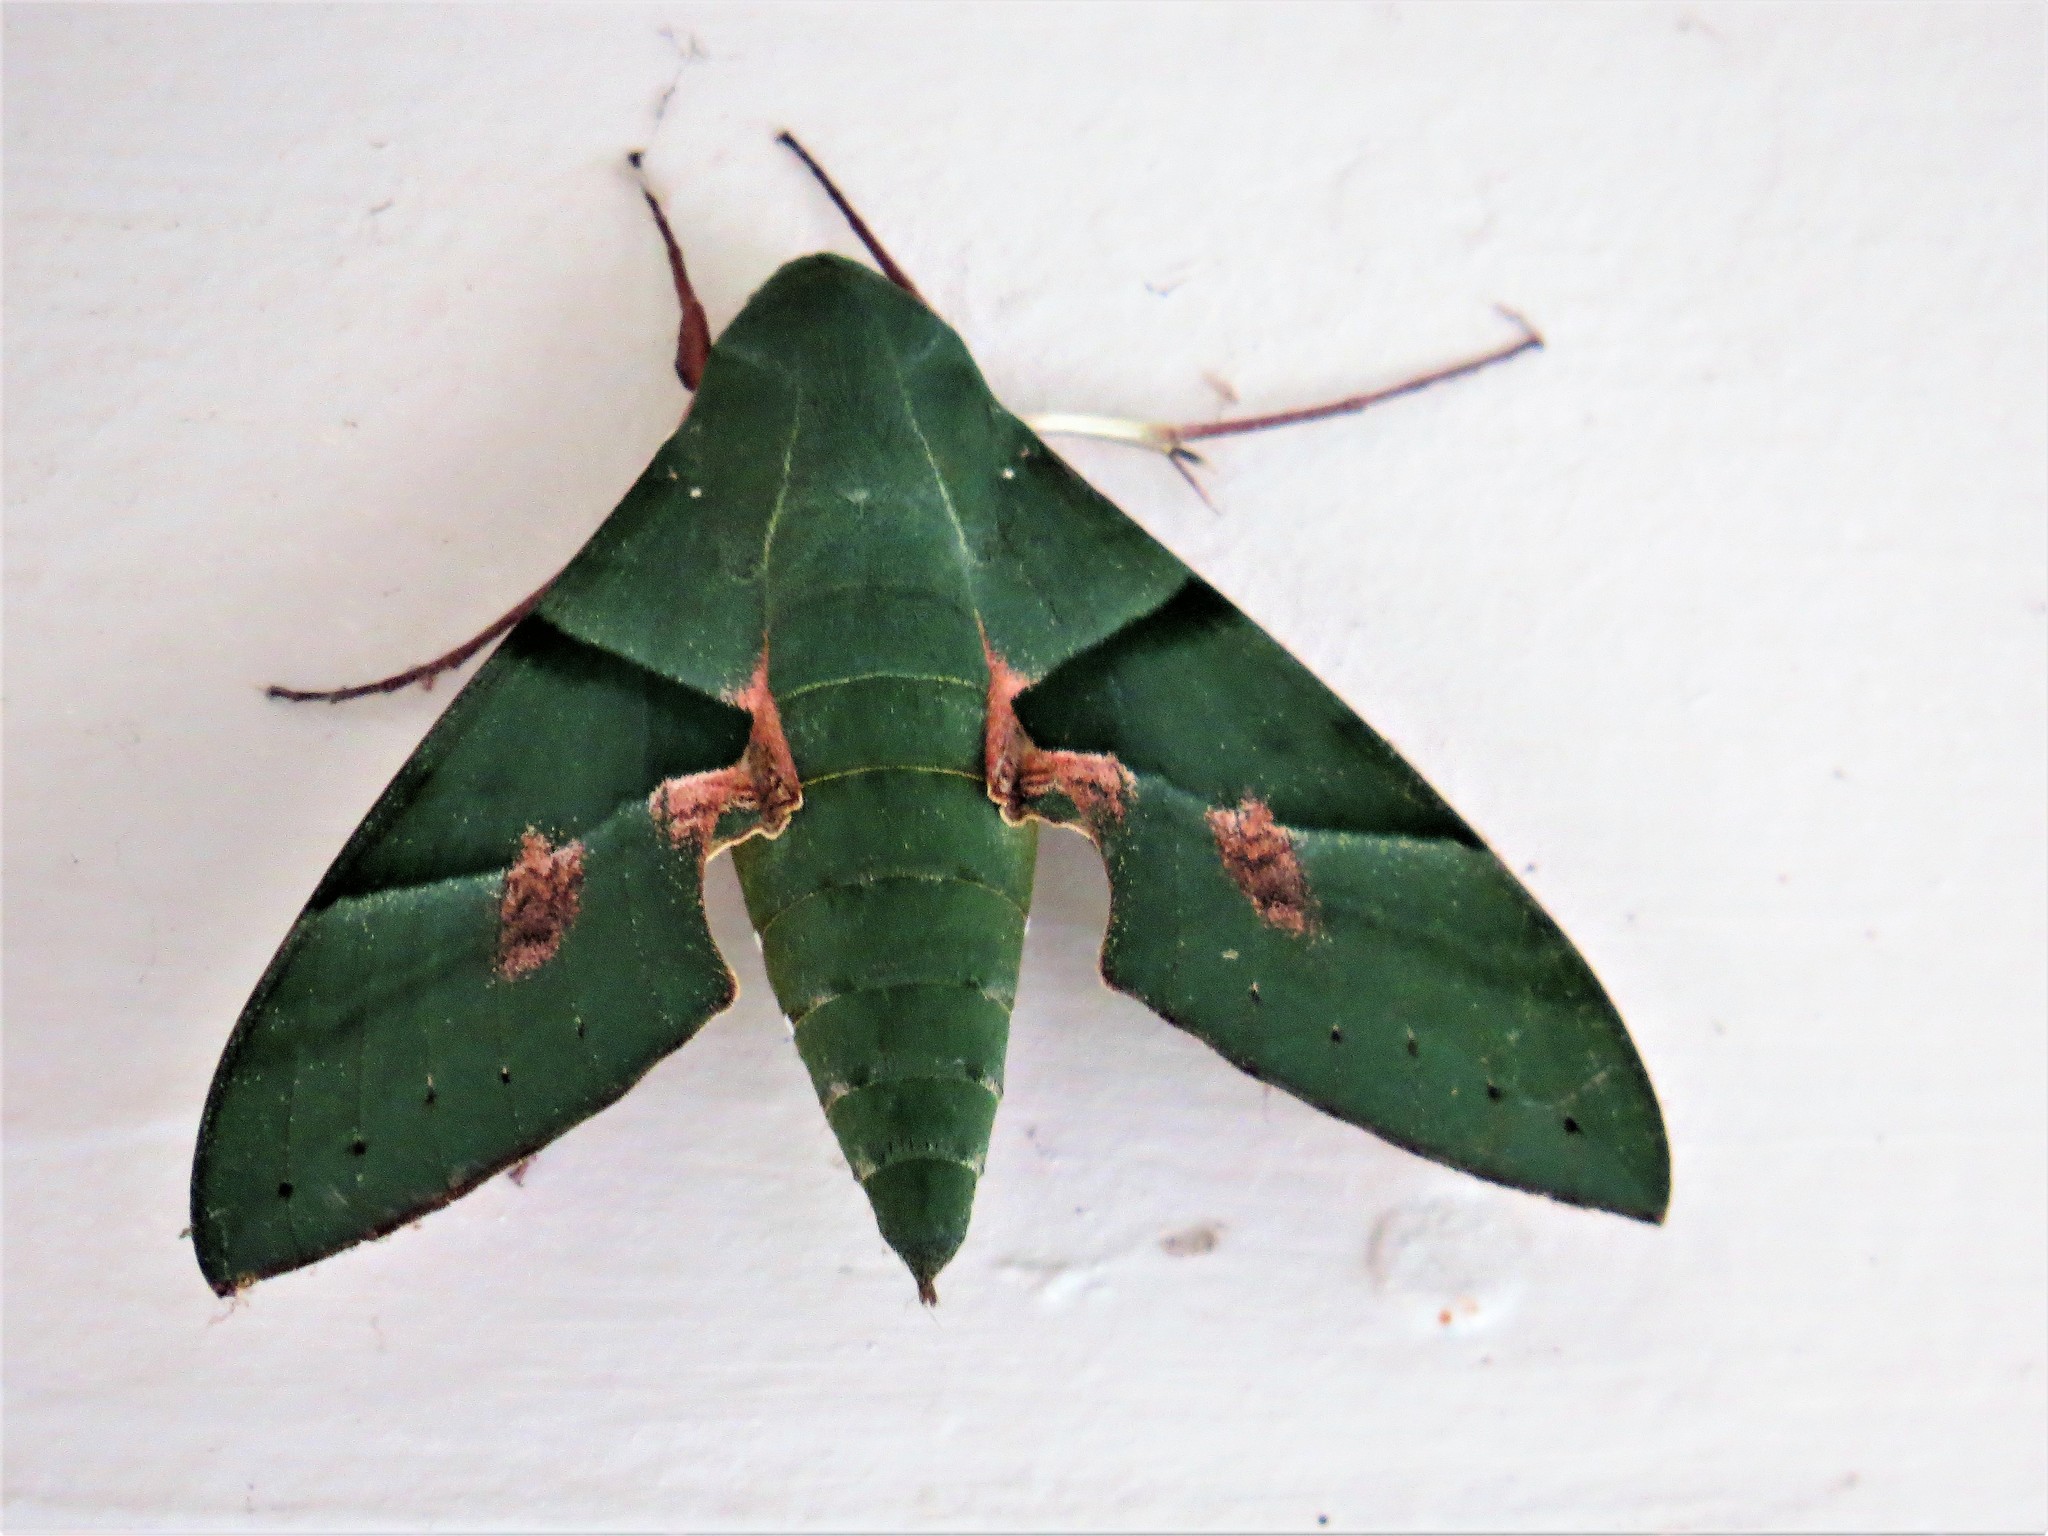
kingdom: Animalia
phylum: Arthropoda
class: Insecta
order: Lepidoptera
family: Sphingidae
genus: Eumorpha
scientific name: Eumorpha labruscae
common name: Gaudy sphinx
